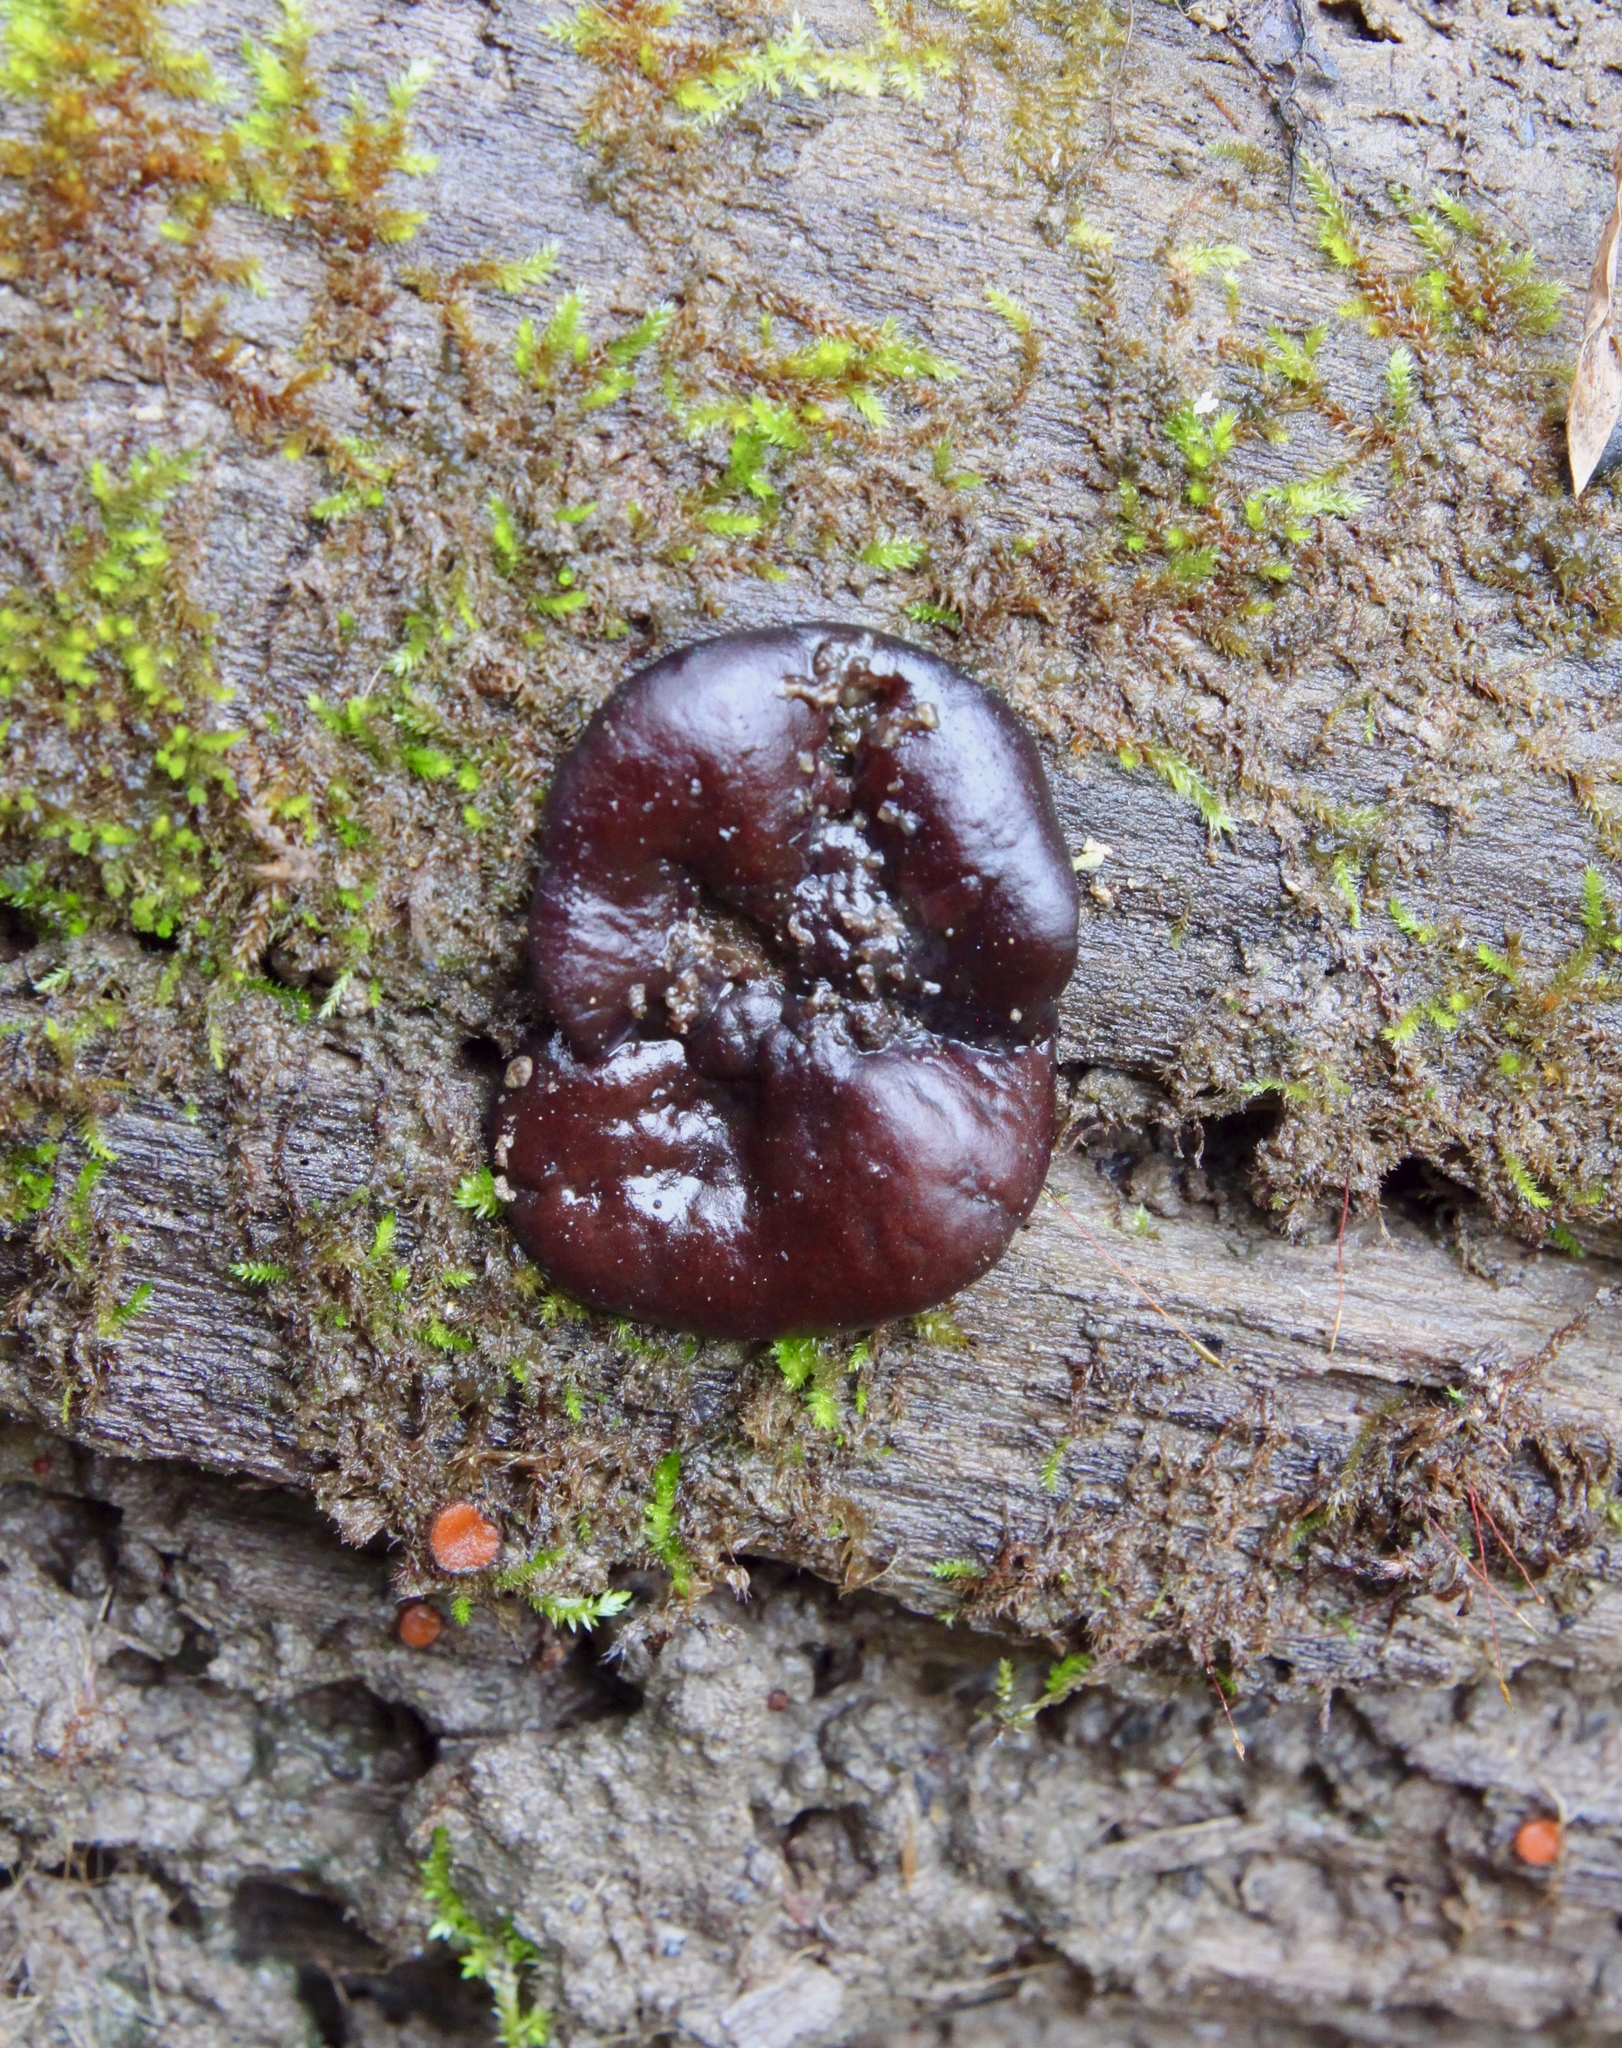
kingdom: Fungi
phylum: Ascomycota
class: Pezizomycetes
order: Pezizales
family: Pezizaceae
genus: Pachyella
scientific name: Pachyella clypeata
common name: Copper penny fungus
